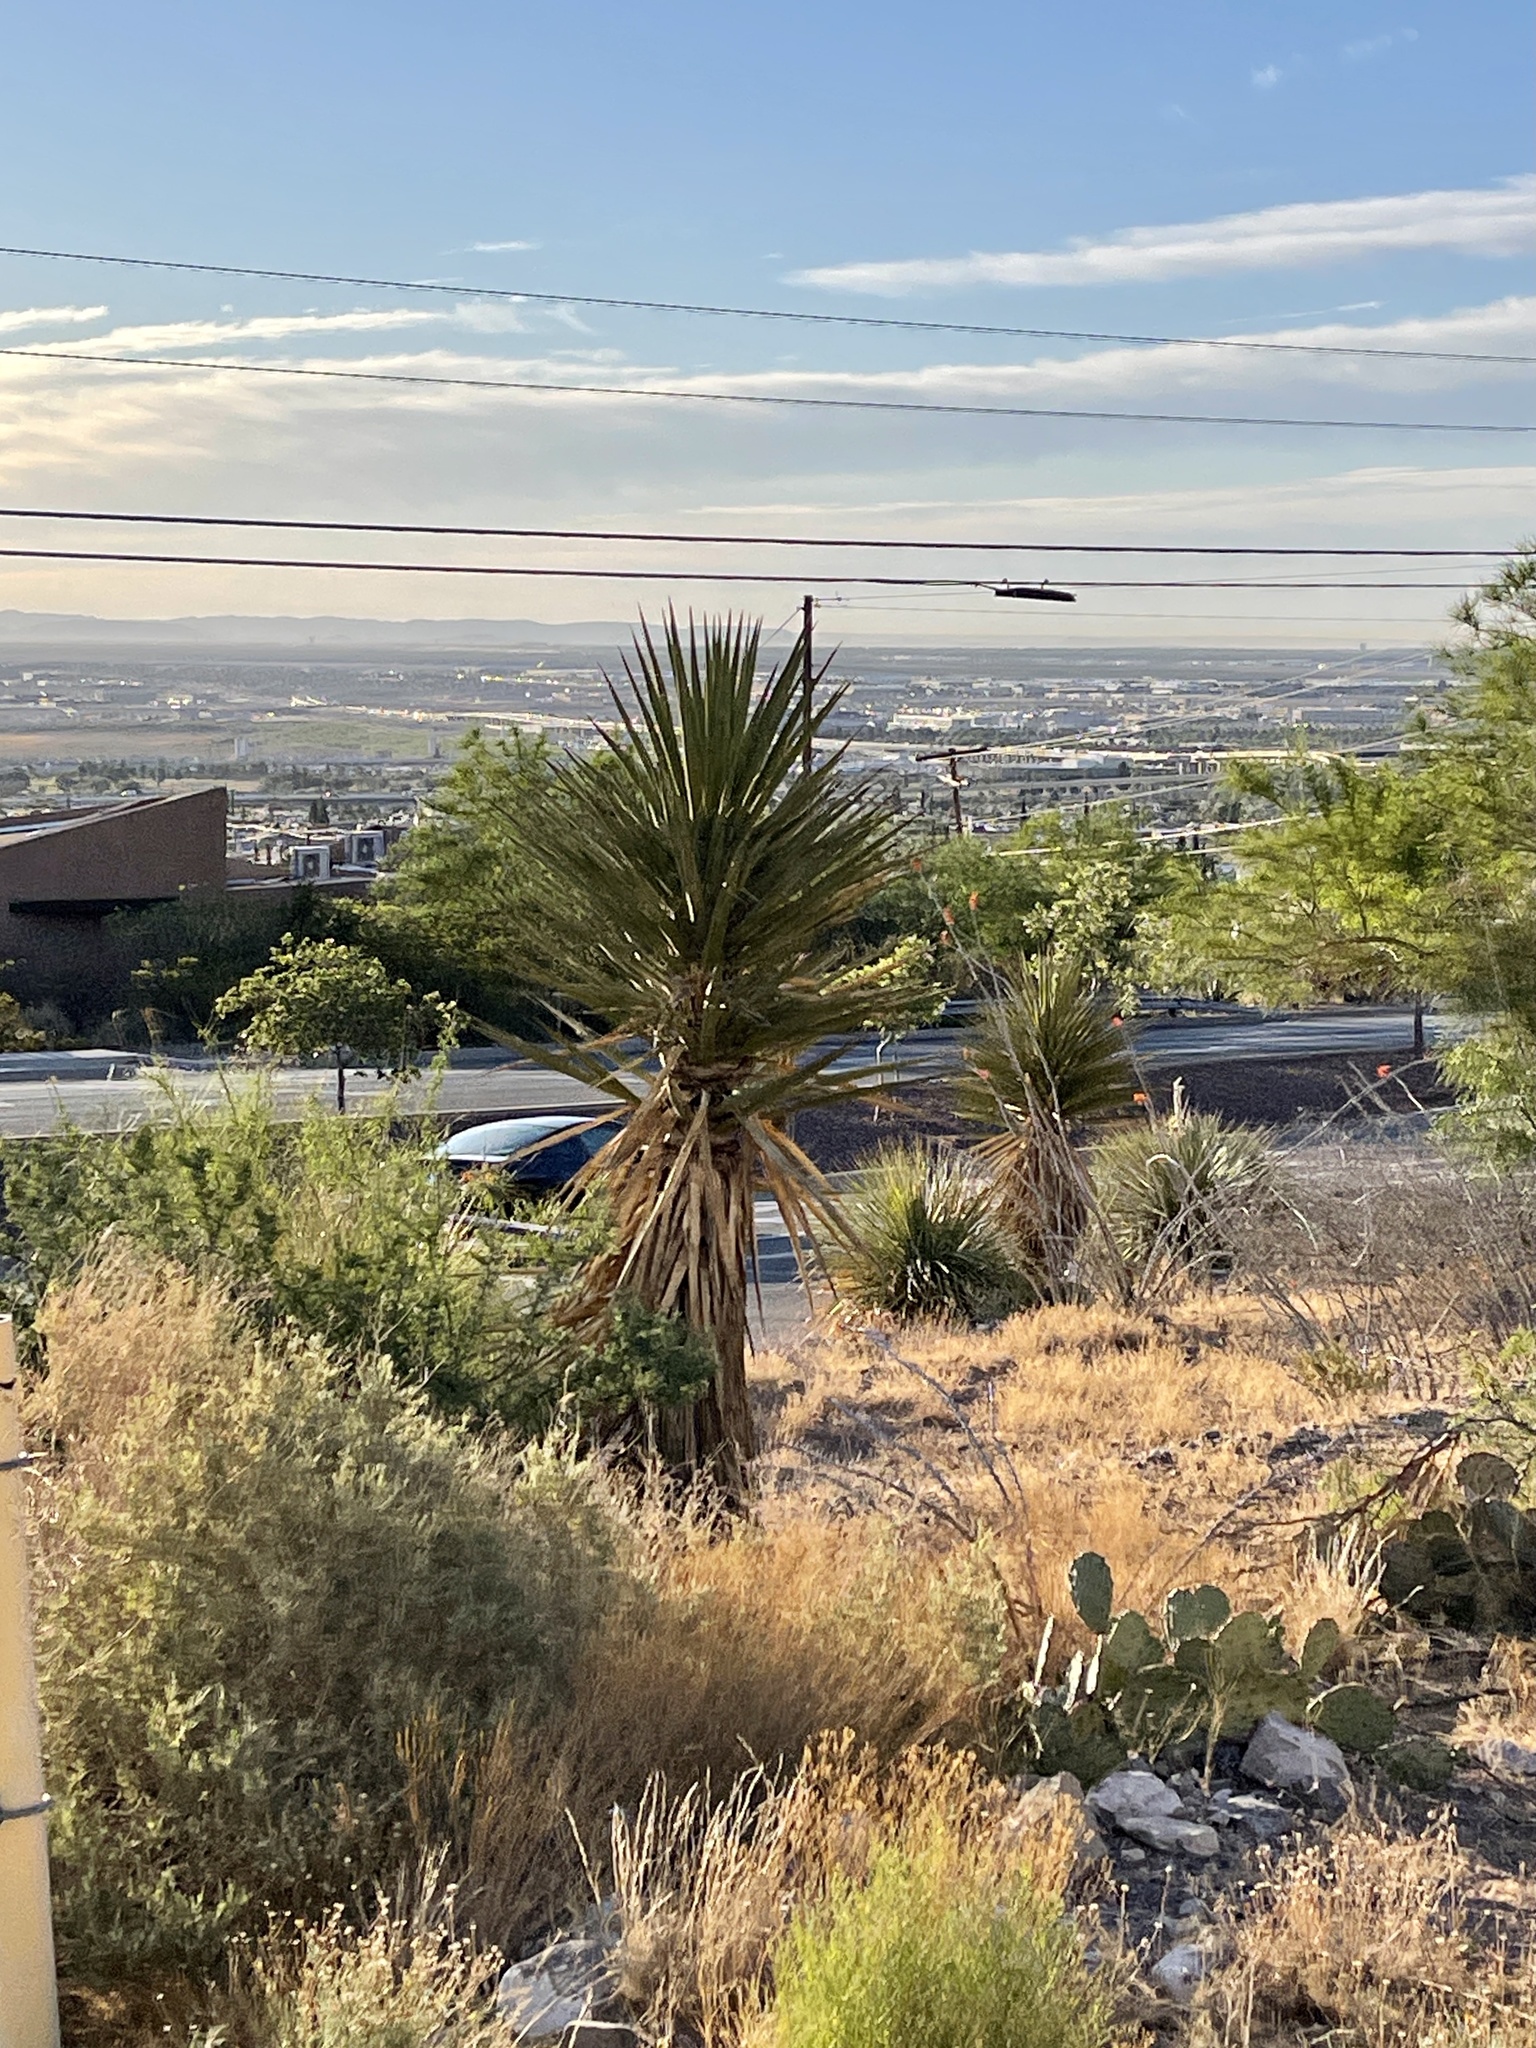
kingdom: Plantae
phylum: Tracheophyta
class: Liliopsida
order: Asparagales
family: Asparagaceae
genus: Yucca
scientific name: Yucca treculiana
